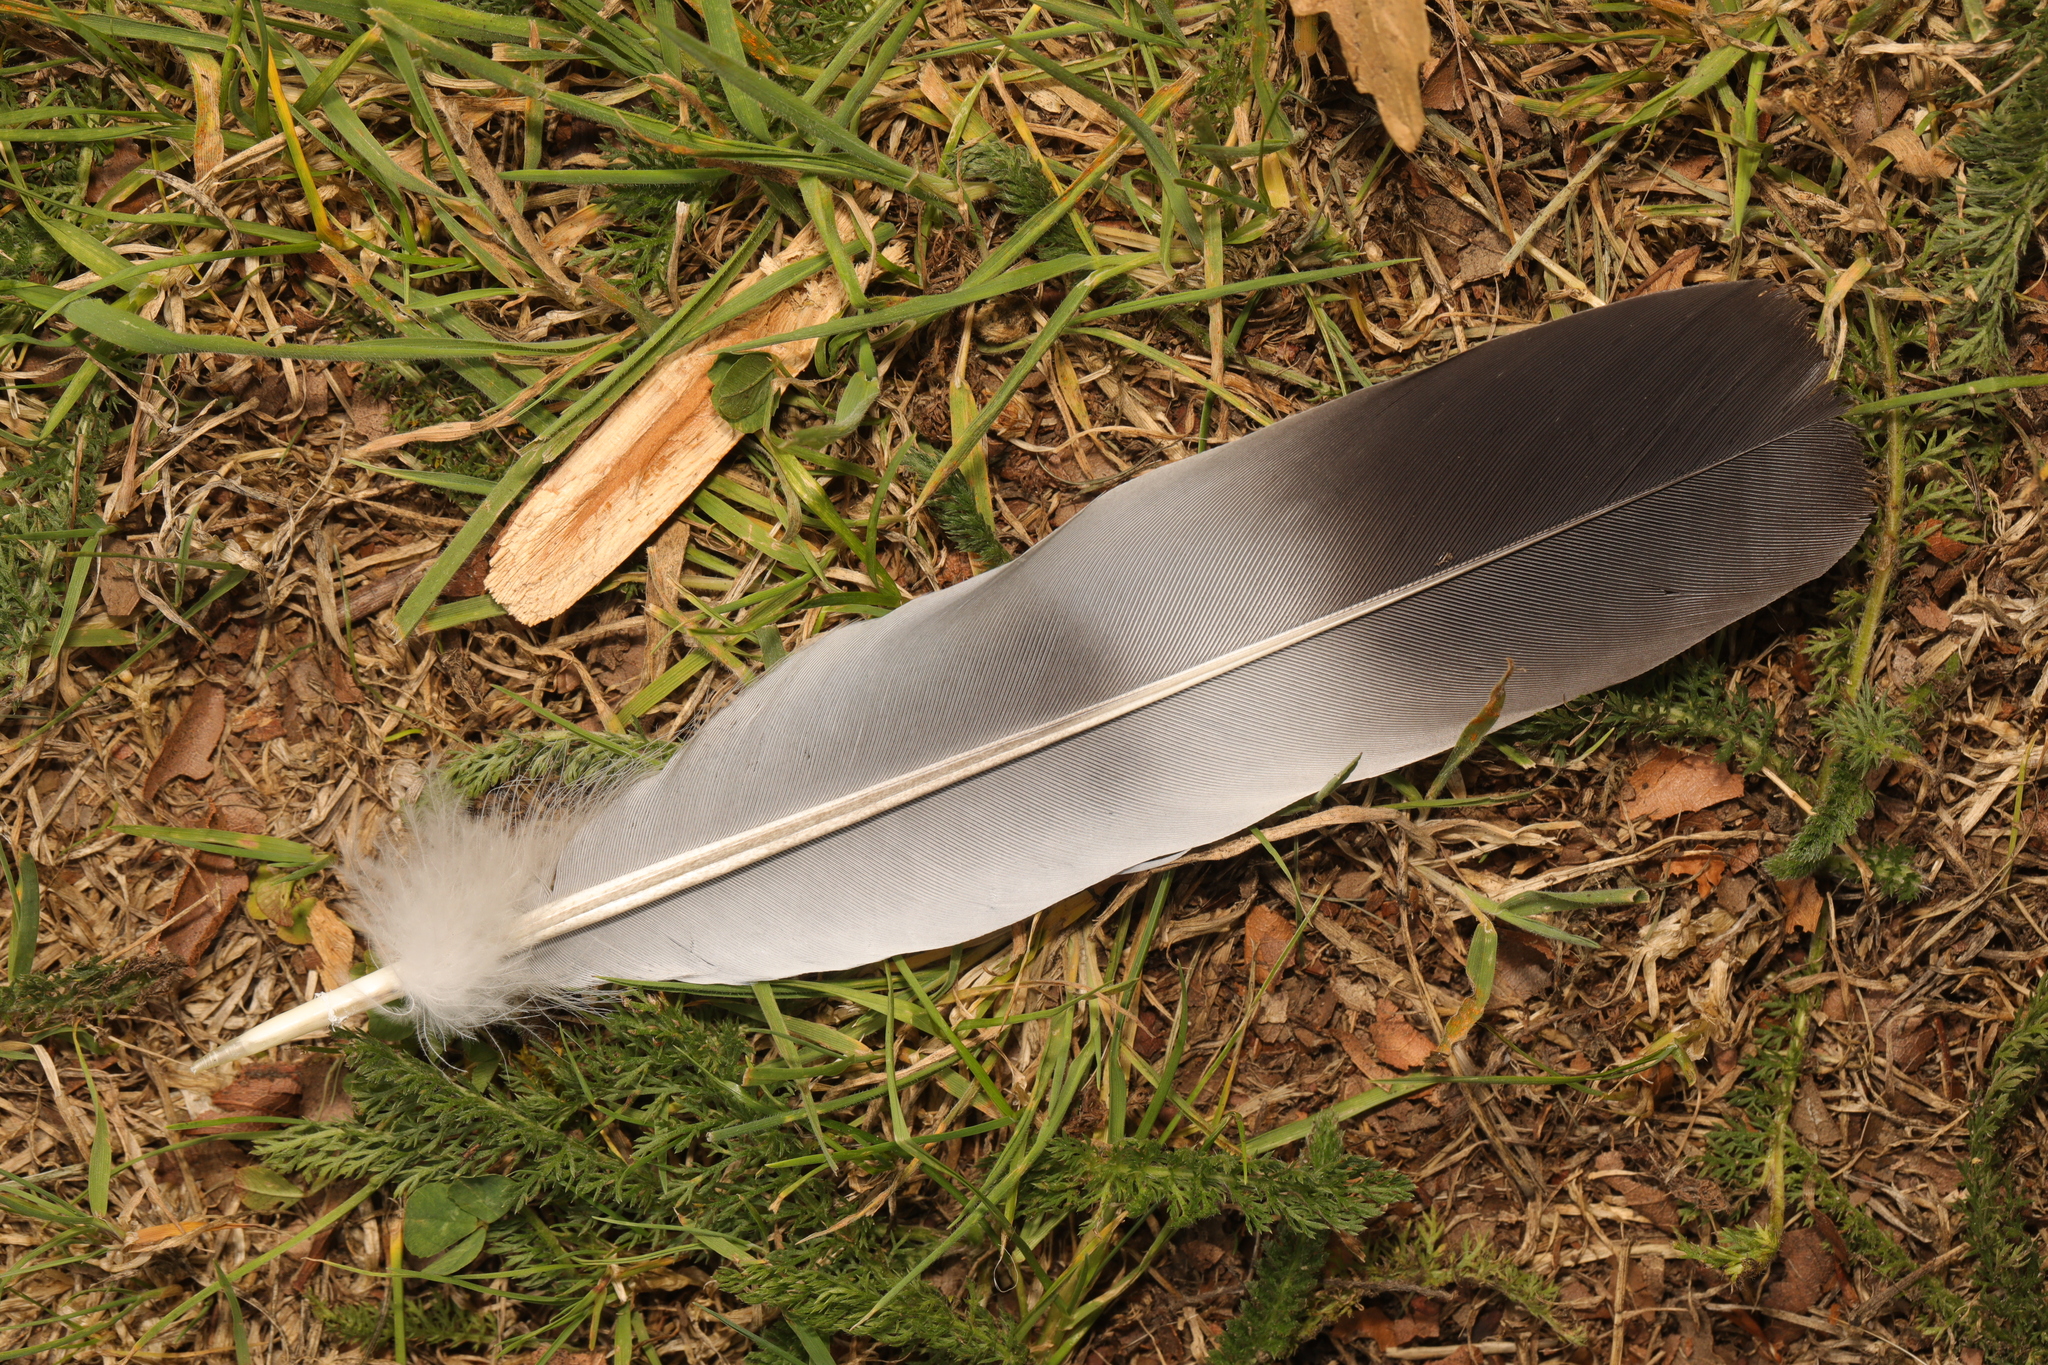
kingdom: Animalia
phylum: Chordata
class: Aves
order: Columbiformes
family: Columbidae
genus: Columba
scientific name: Columba palumbus
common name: Common wood pigeon
